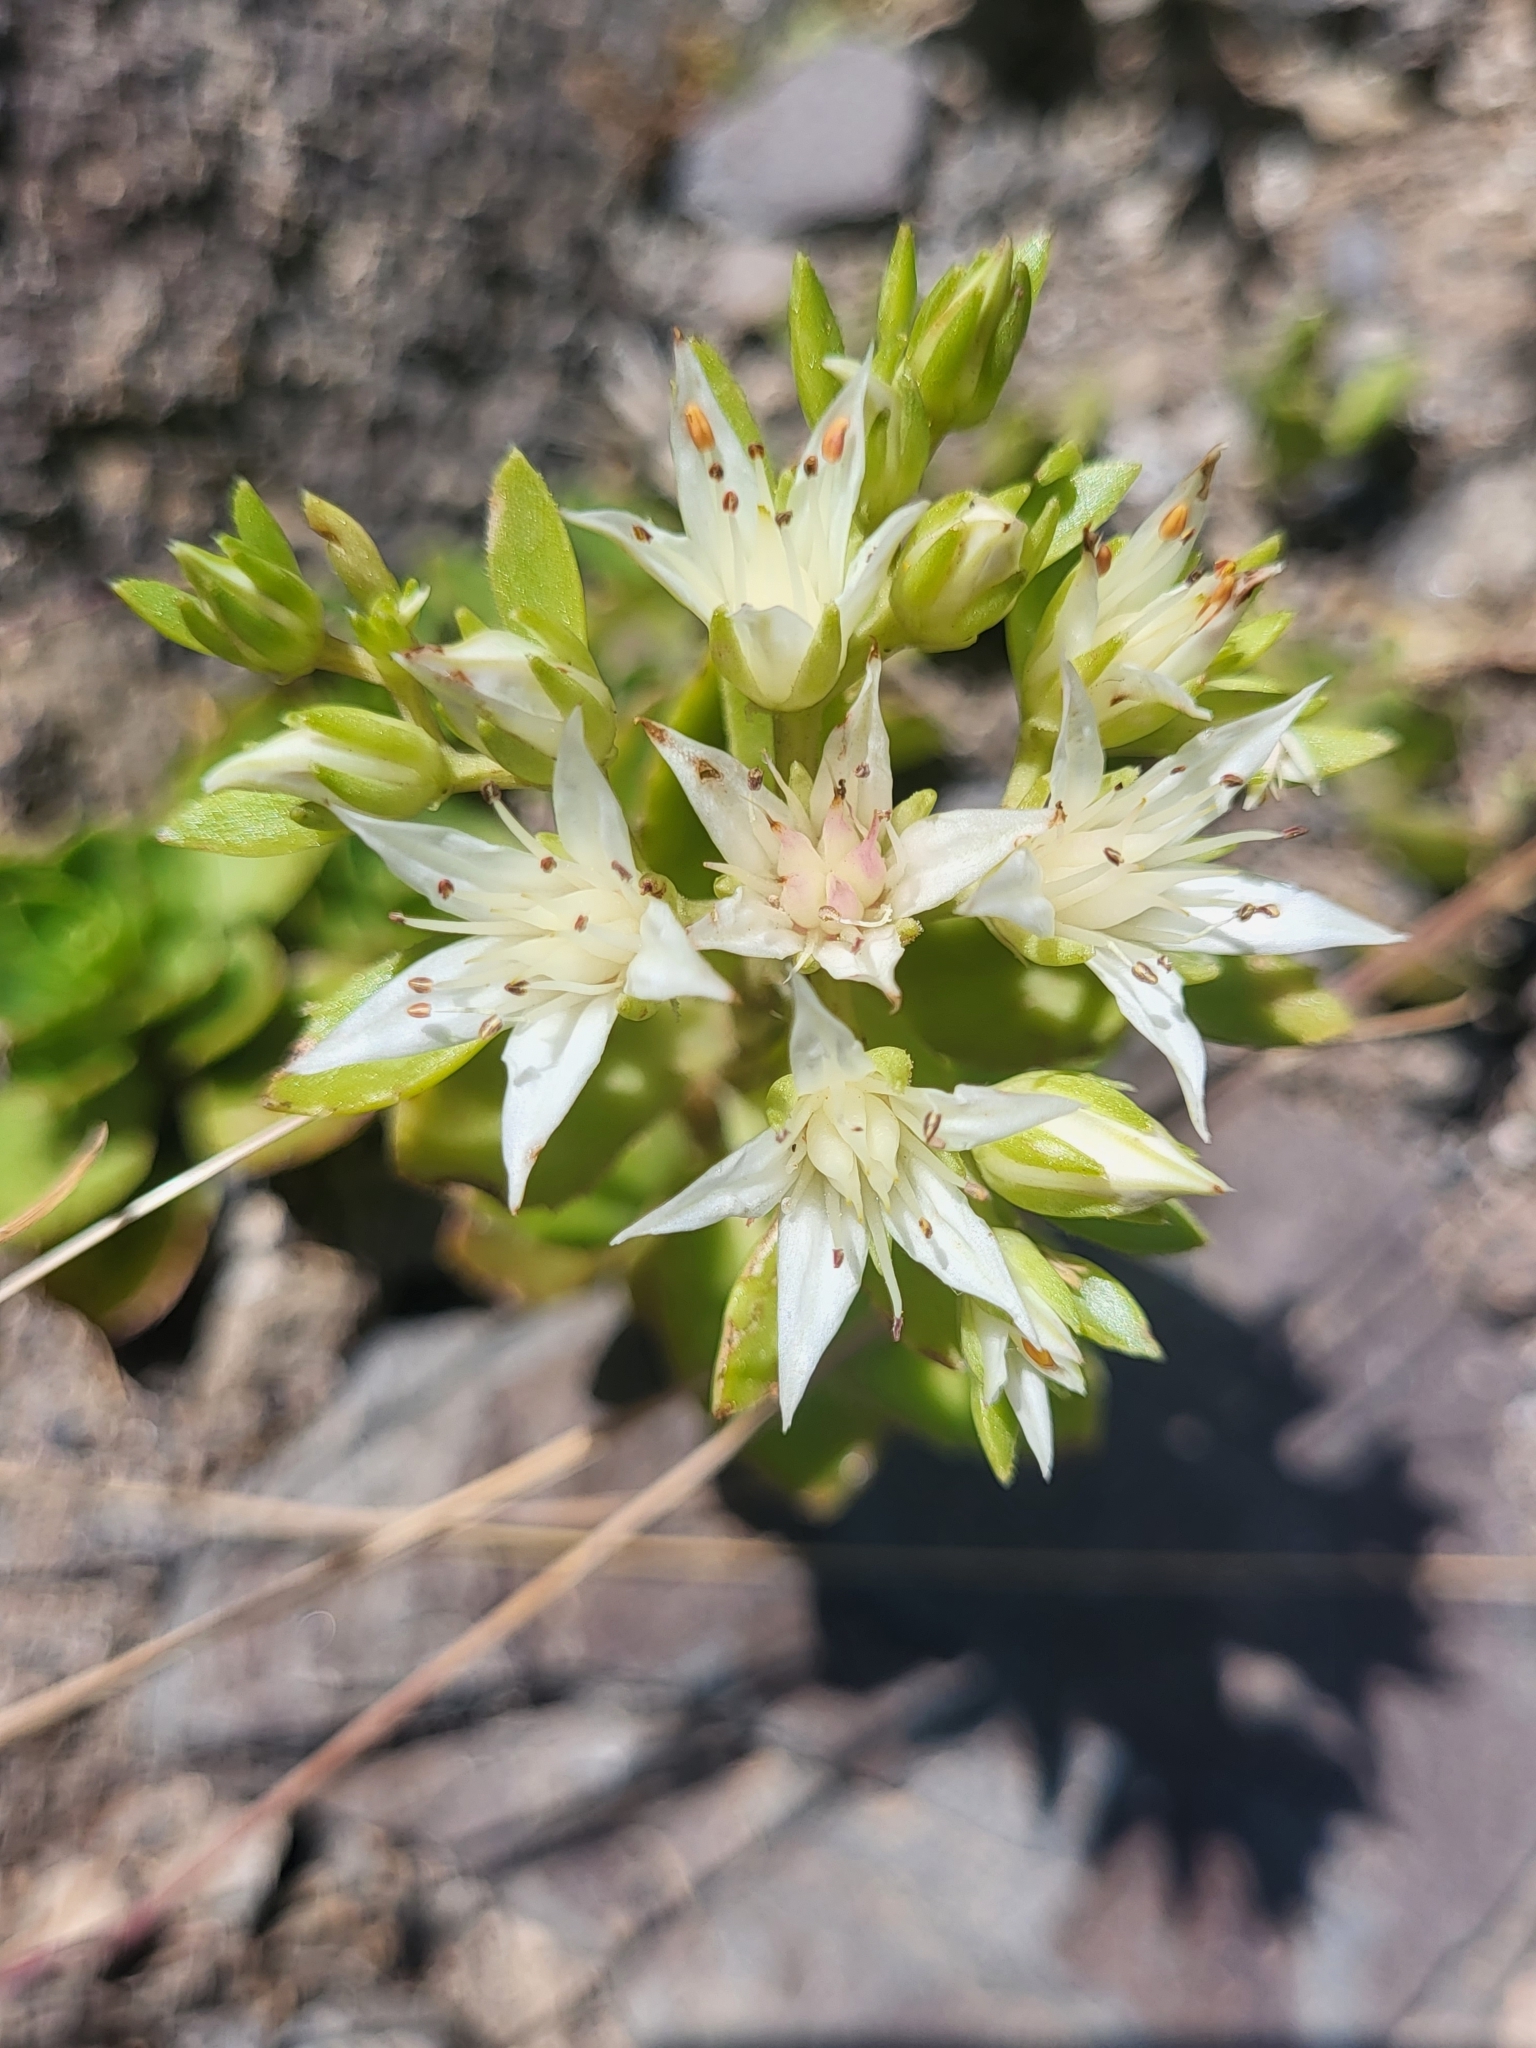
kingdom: Plantae
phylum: Tracheophyta
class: Magnoliopsida
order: Saxifragales
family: Crassulaceae
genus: Phedimus
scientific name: Phedimus spurius
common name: Caucasian stonecrop
